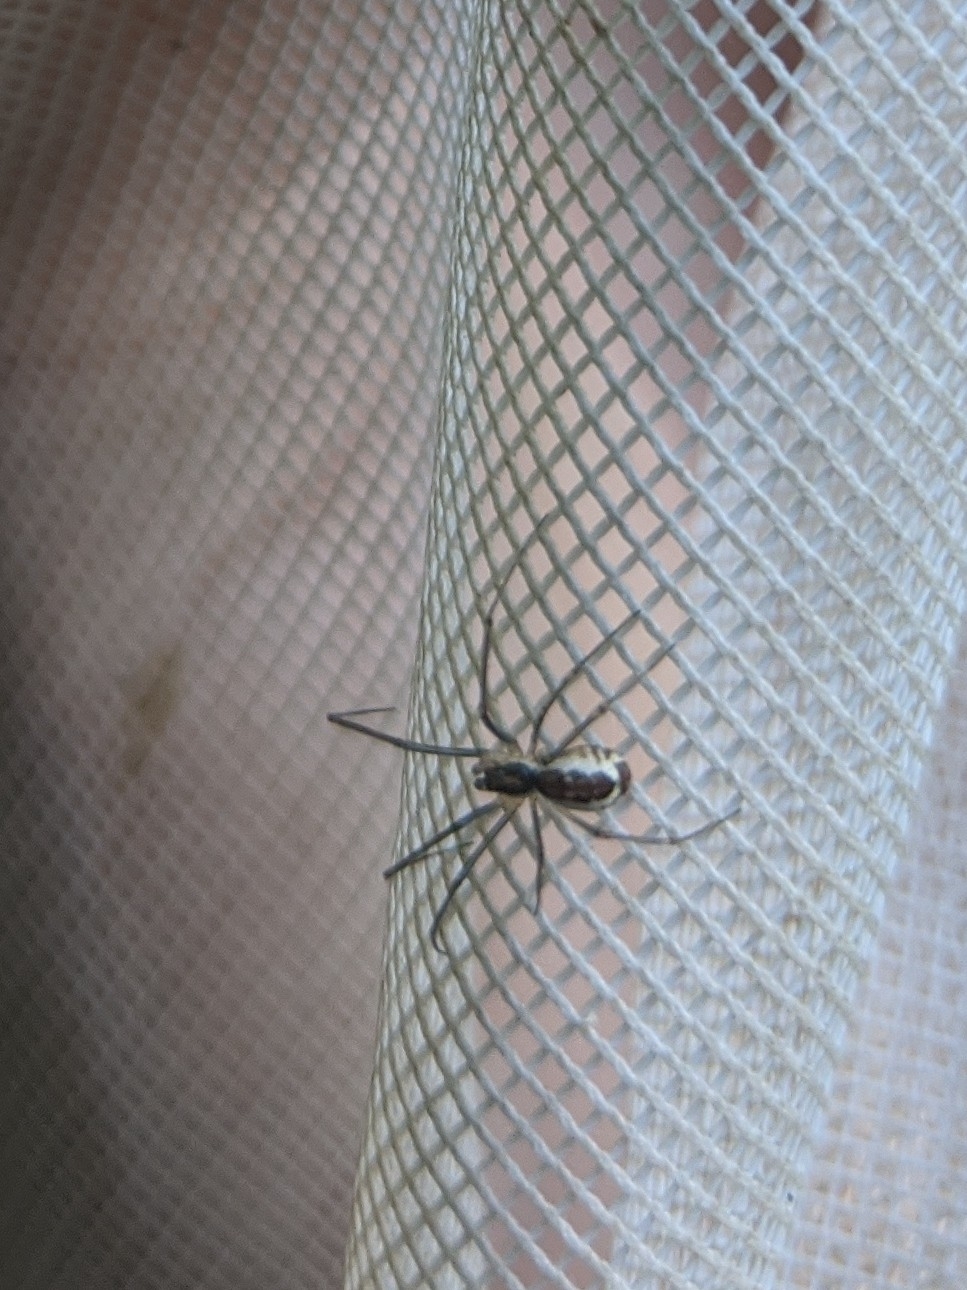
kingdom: Animalia
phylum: Arthropoda
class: Arachnida
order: Araneae
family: Linyphiidae
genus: Neriene
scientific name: Neriene radiata
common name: Filmy dome spider
